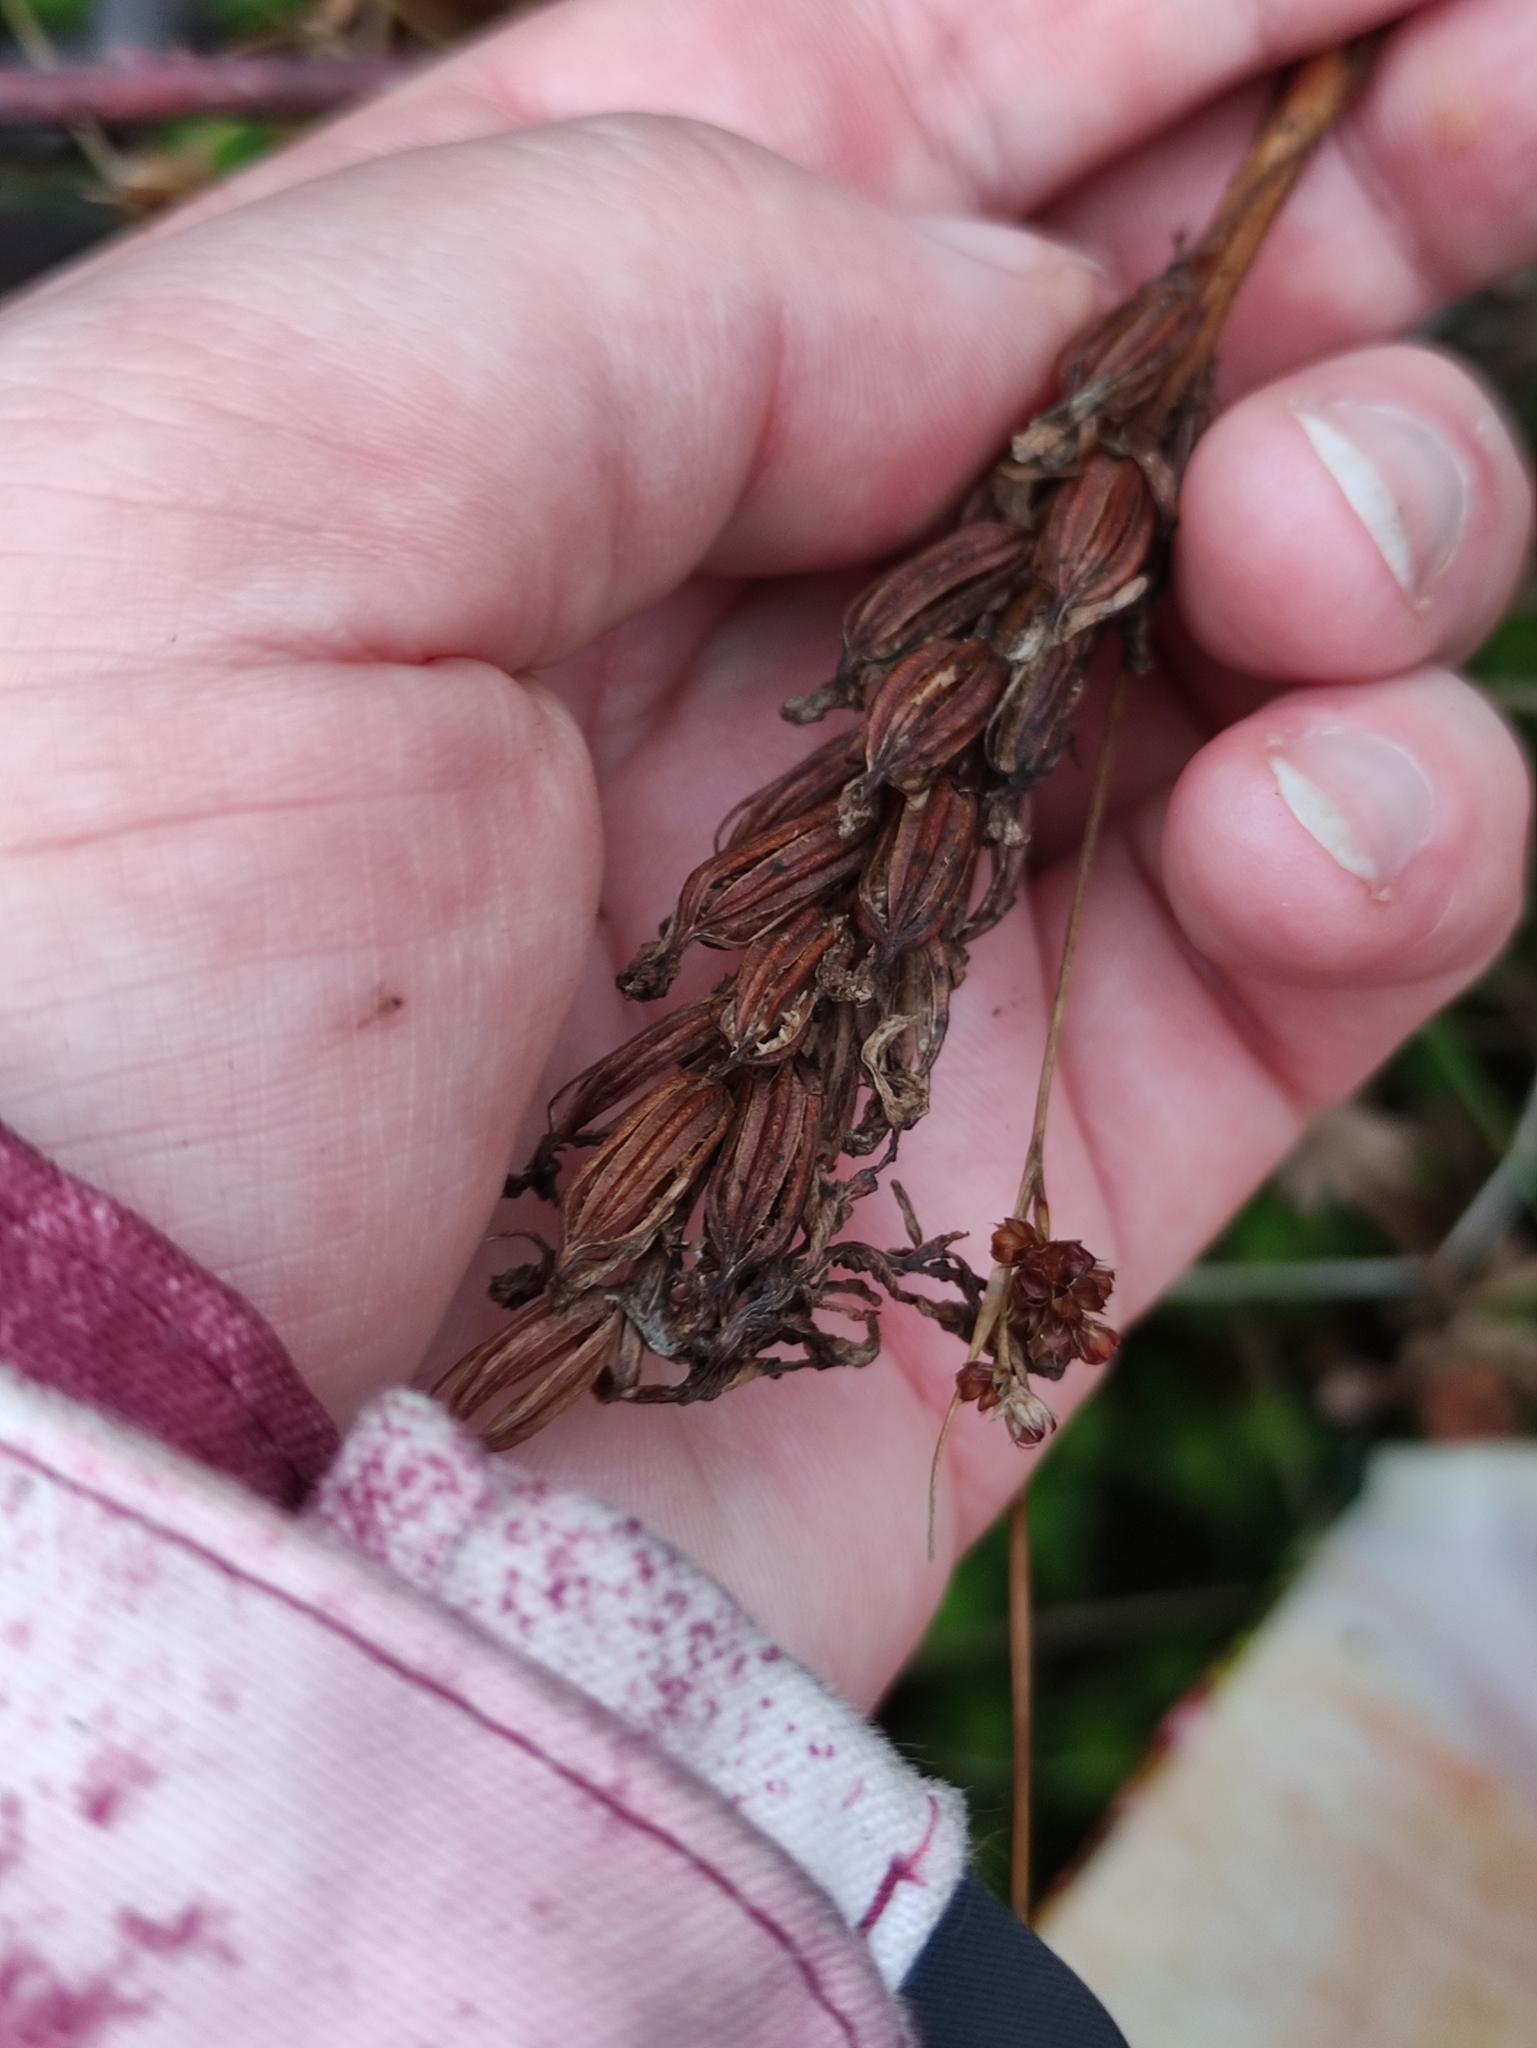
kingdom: Plantae
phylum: Tracheophyta
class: Liliopsida
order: Asparagales
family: Orchidaceae
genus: Dactylorhiza
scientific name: Dactylorhiza
